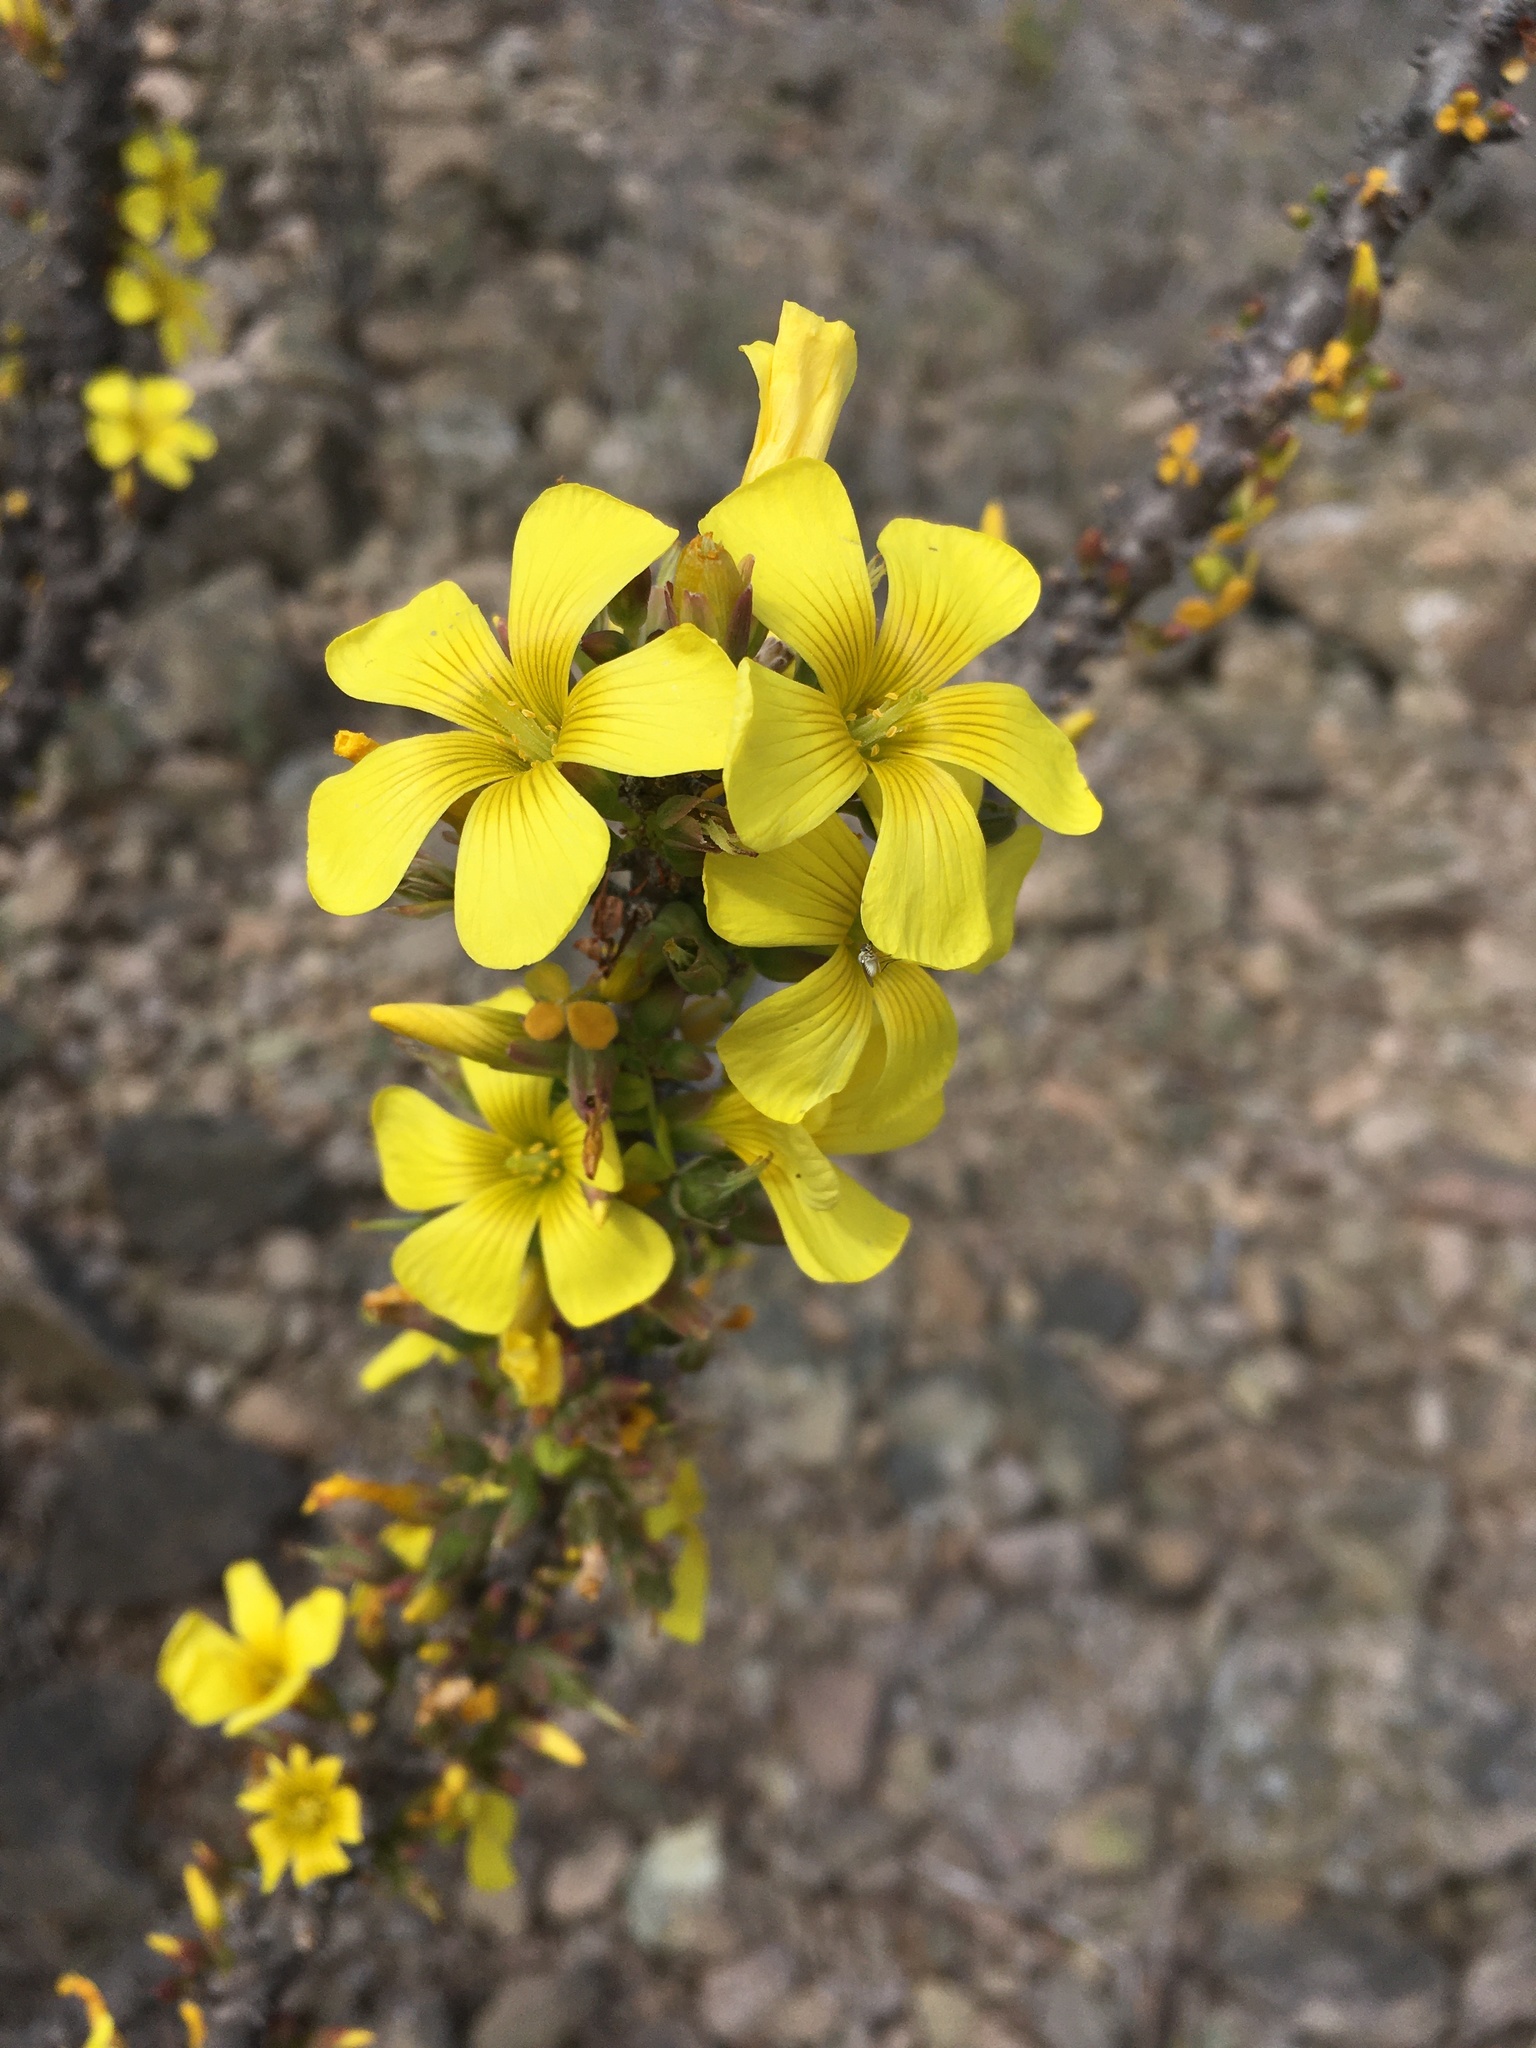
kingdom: Plantae
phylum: Tracheophyta
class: Magnoliopsida
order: Oxalidales
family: Oxalidaceae
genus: Oxalis
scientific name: Oxalis gigantea
